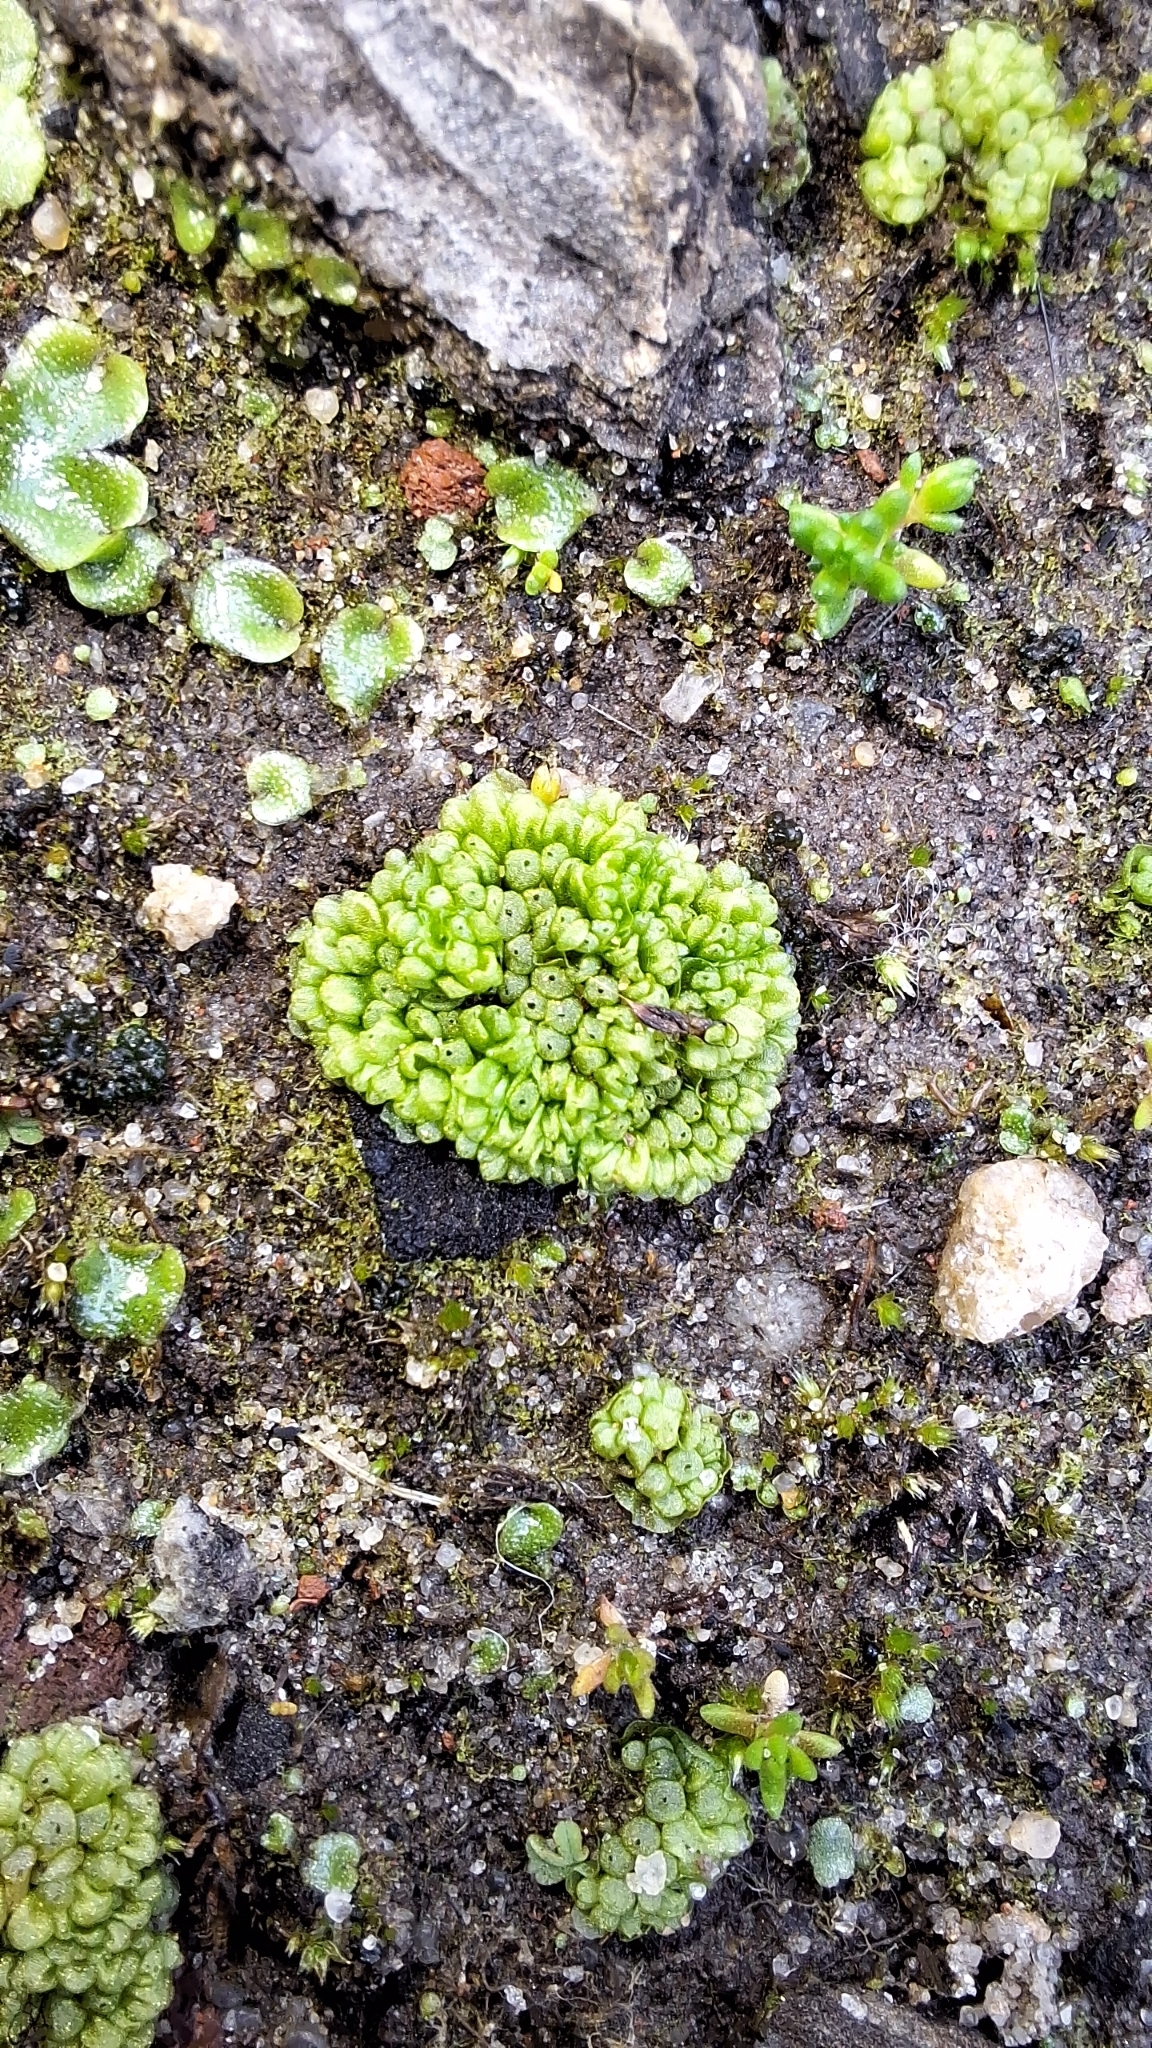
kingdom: Plantae
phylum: Marchantiophyta
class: Marchantiopsida
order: Sphaerocarpales
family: Sphaerocarpaceae
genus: Sphaerocarpos
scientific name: Sphaerocarpos texanus
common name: Texas balloonwort
